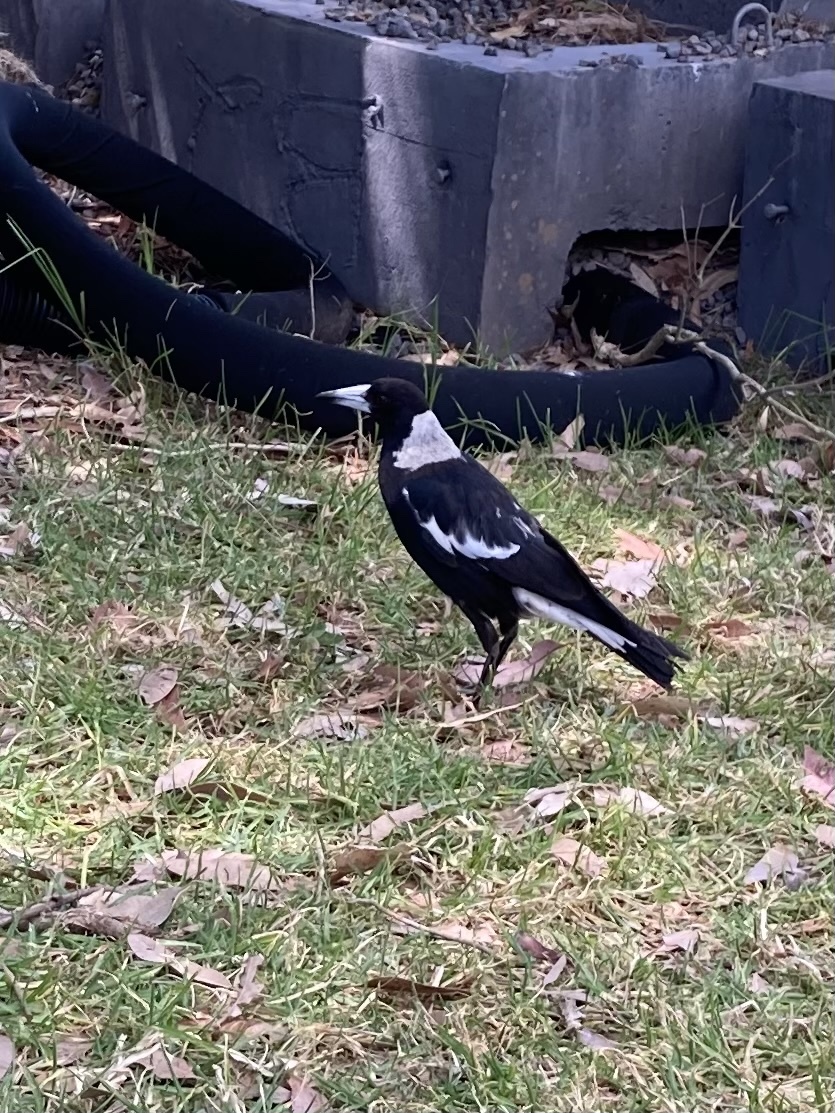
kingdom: Animalia
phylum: Chordata
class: Aves
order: Passeriformes
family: Cracticidae
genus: Gymnorhina
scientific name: Gymnorhina tibicen
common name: Australian magpie
